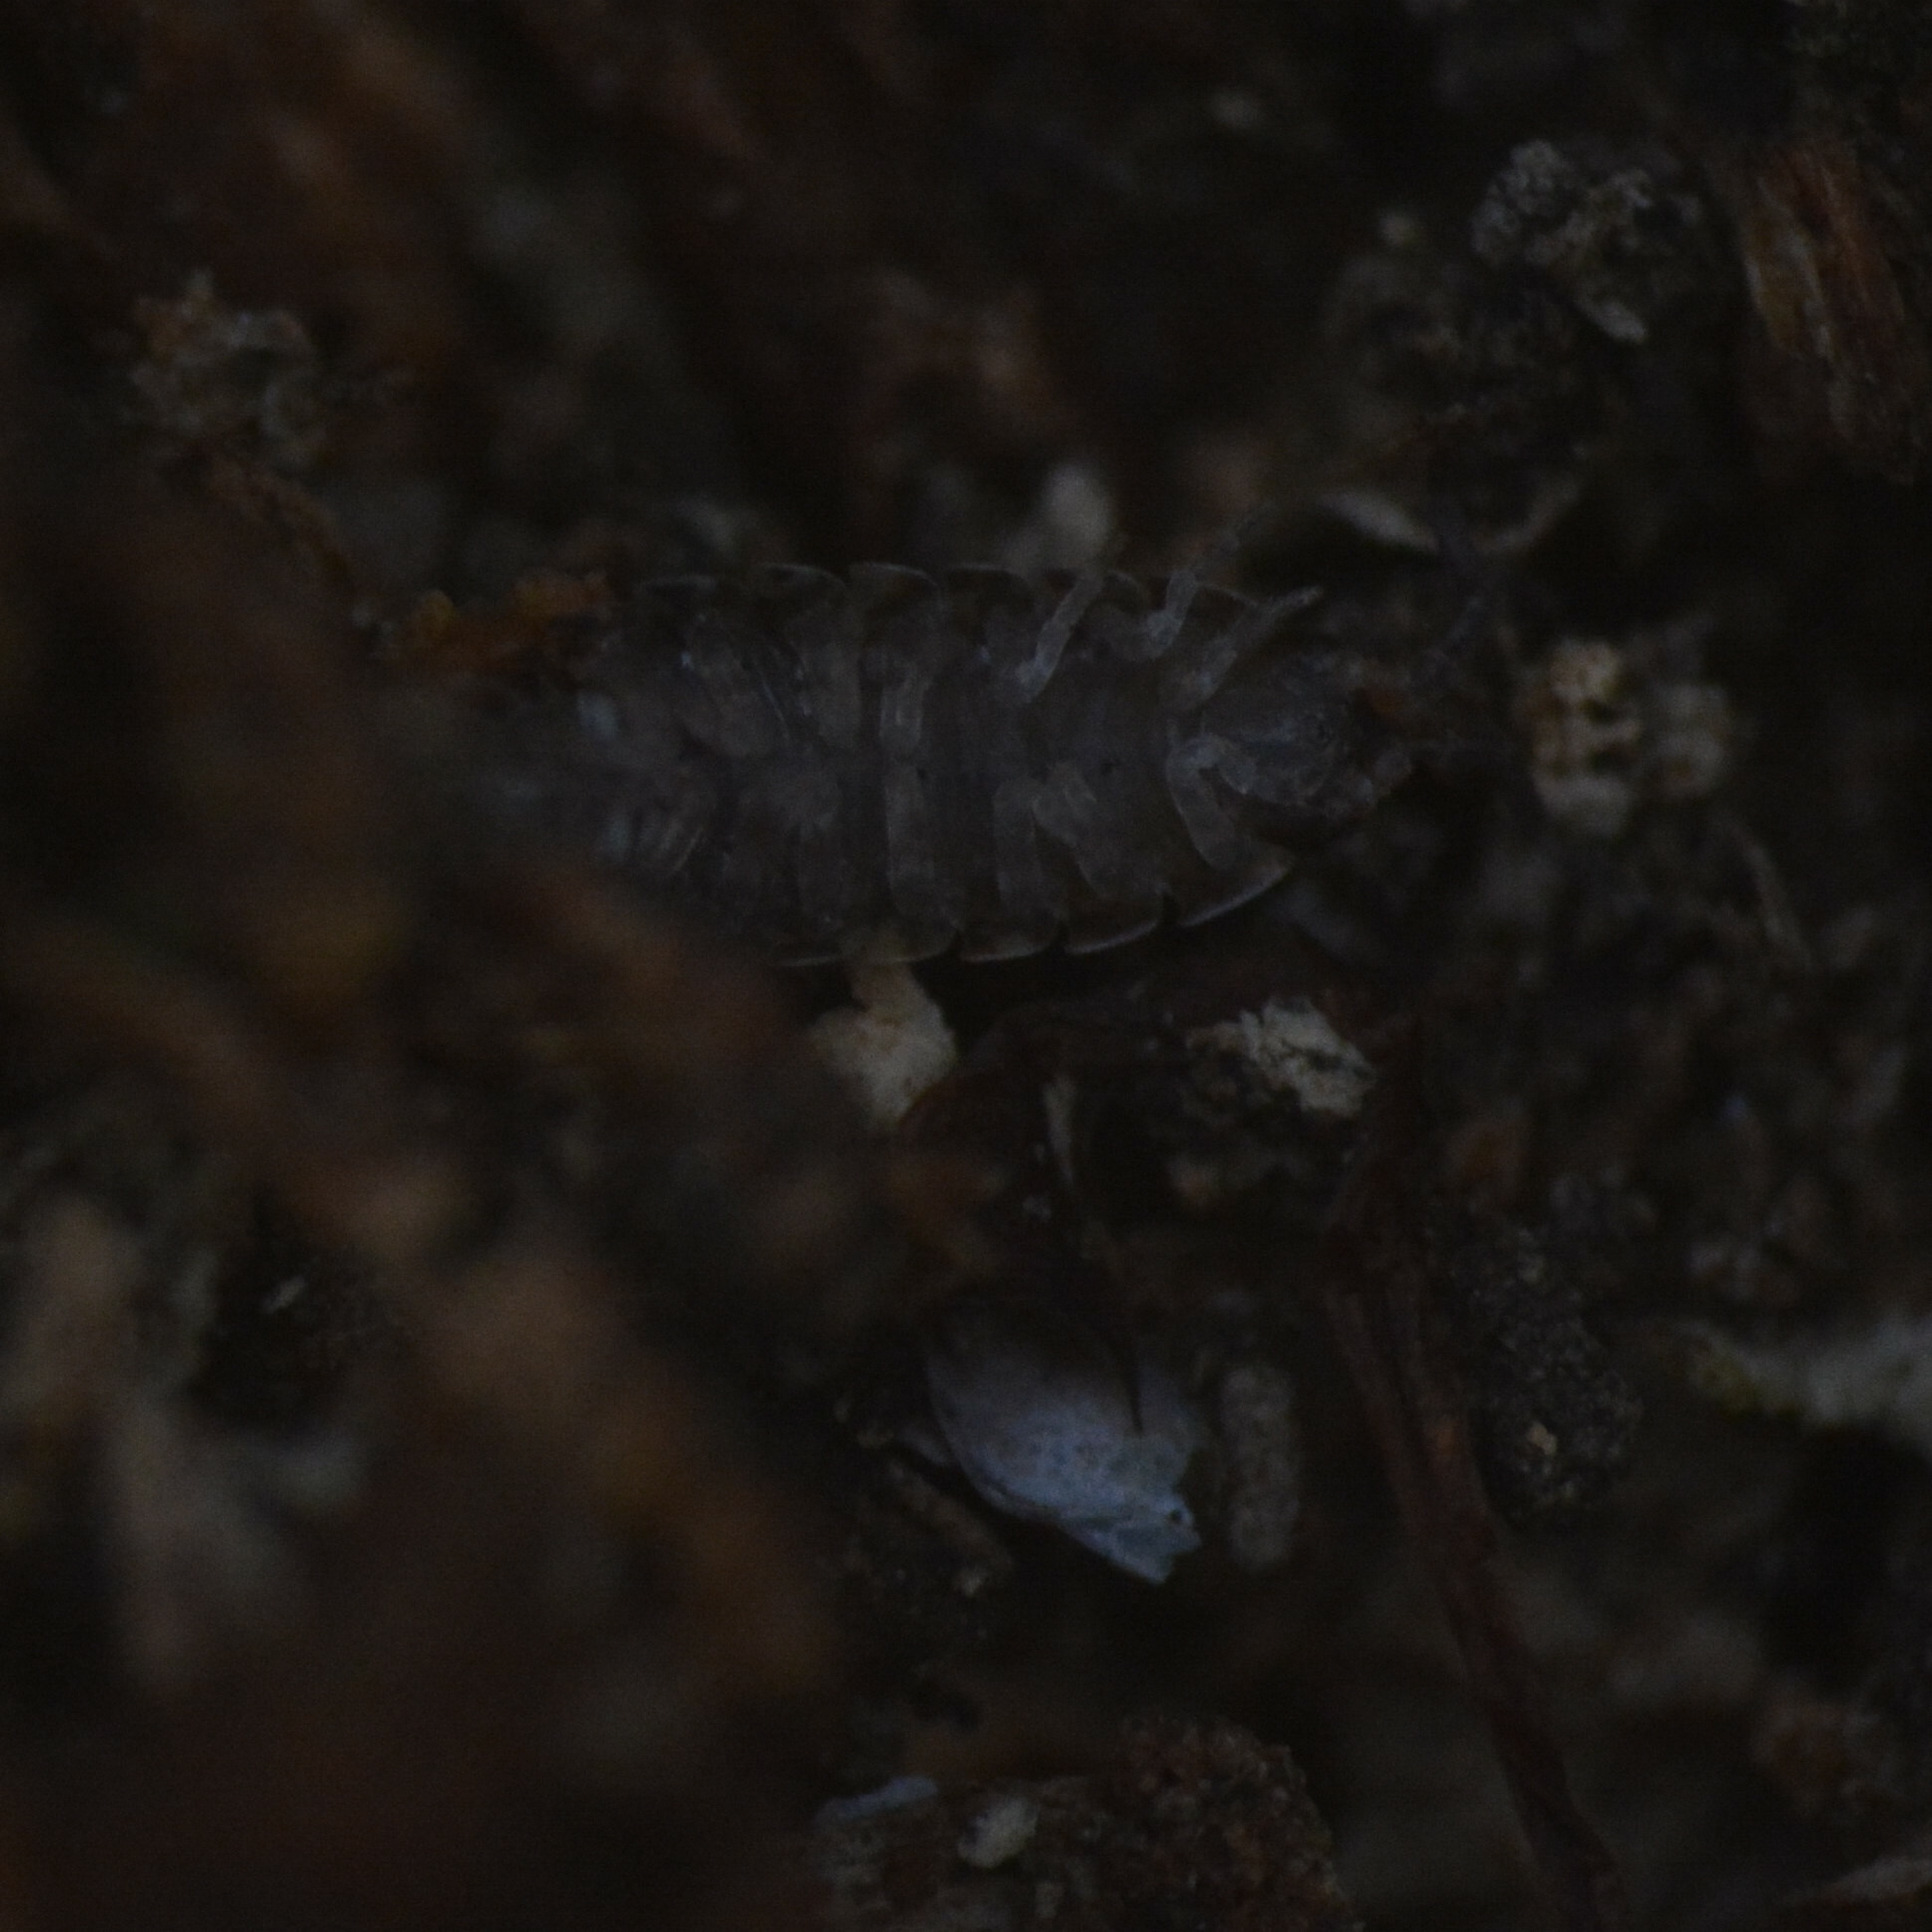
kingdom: Animalia
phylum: Arthropoda
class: Malacostraca
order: Isopoda
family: Porcellionidae
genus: Porcellio
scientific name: Porcellio scaber
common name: Common rough woodlouse
